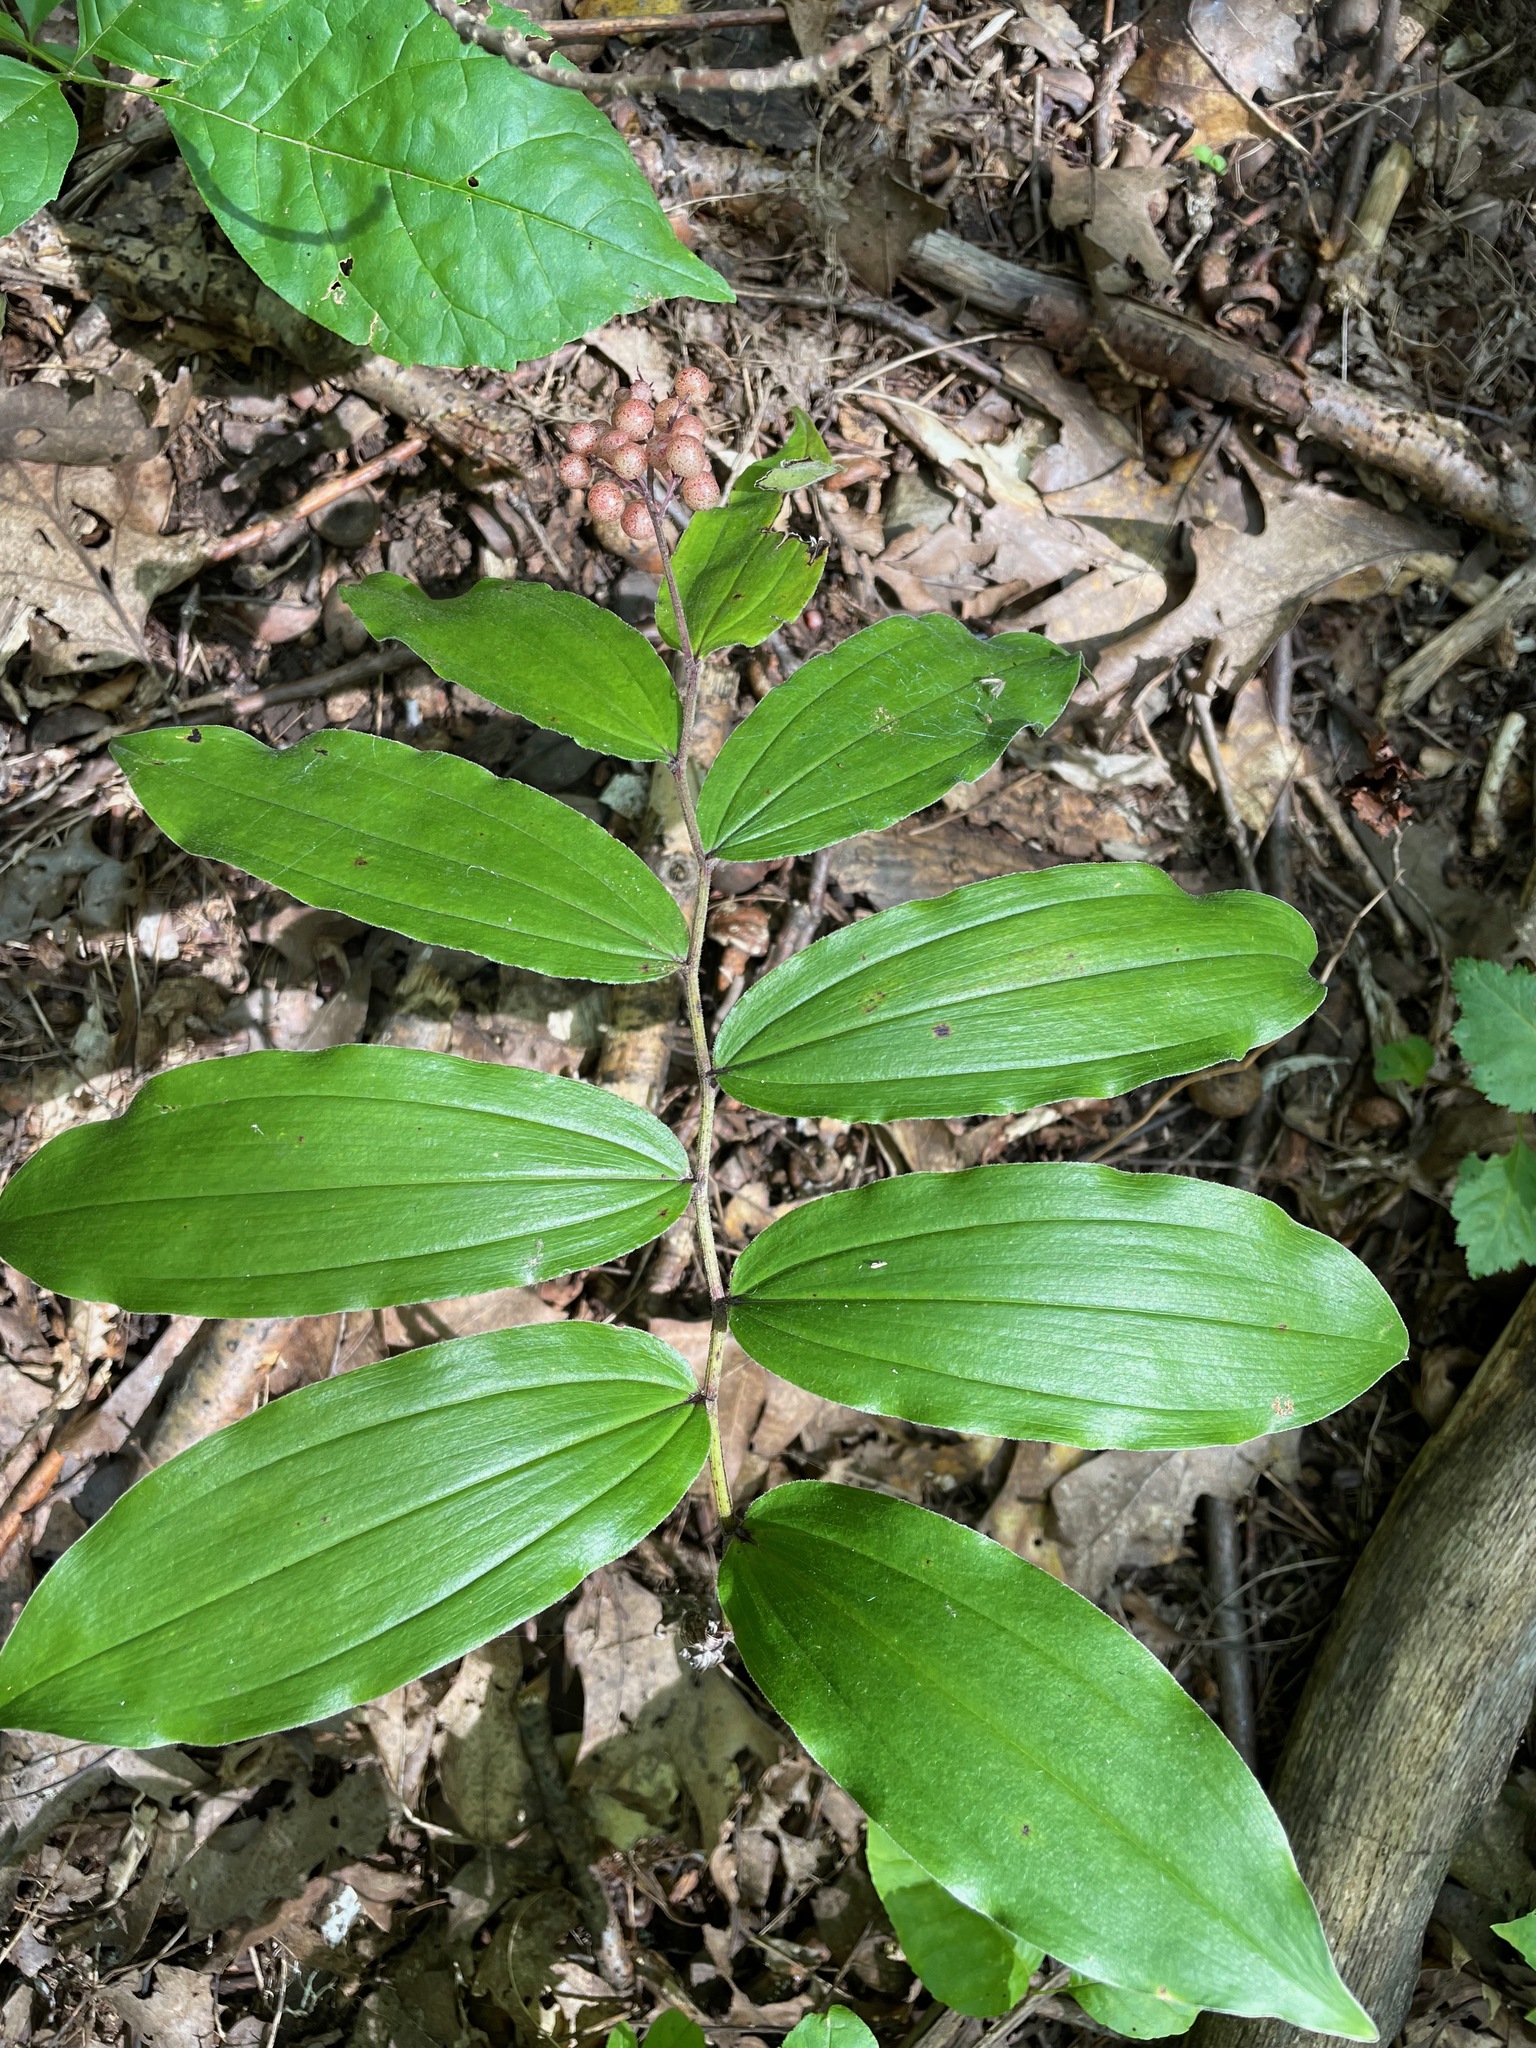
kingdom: Plantae
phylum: Tracheophyta
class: Liliopsida
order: Asparagales
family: Asparagaceae
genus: Maianthemum
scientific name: Maianthemum racemosum
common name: False spikenard
